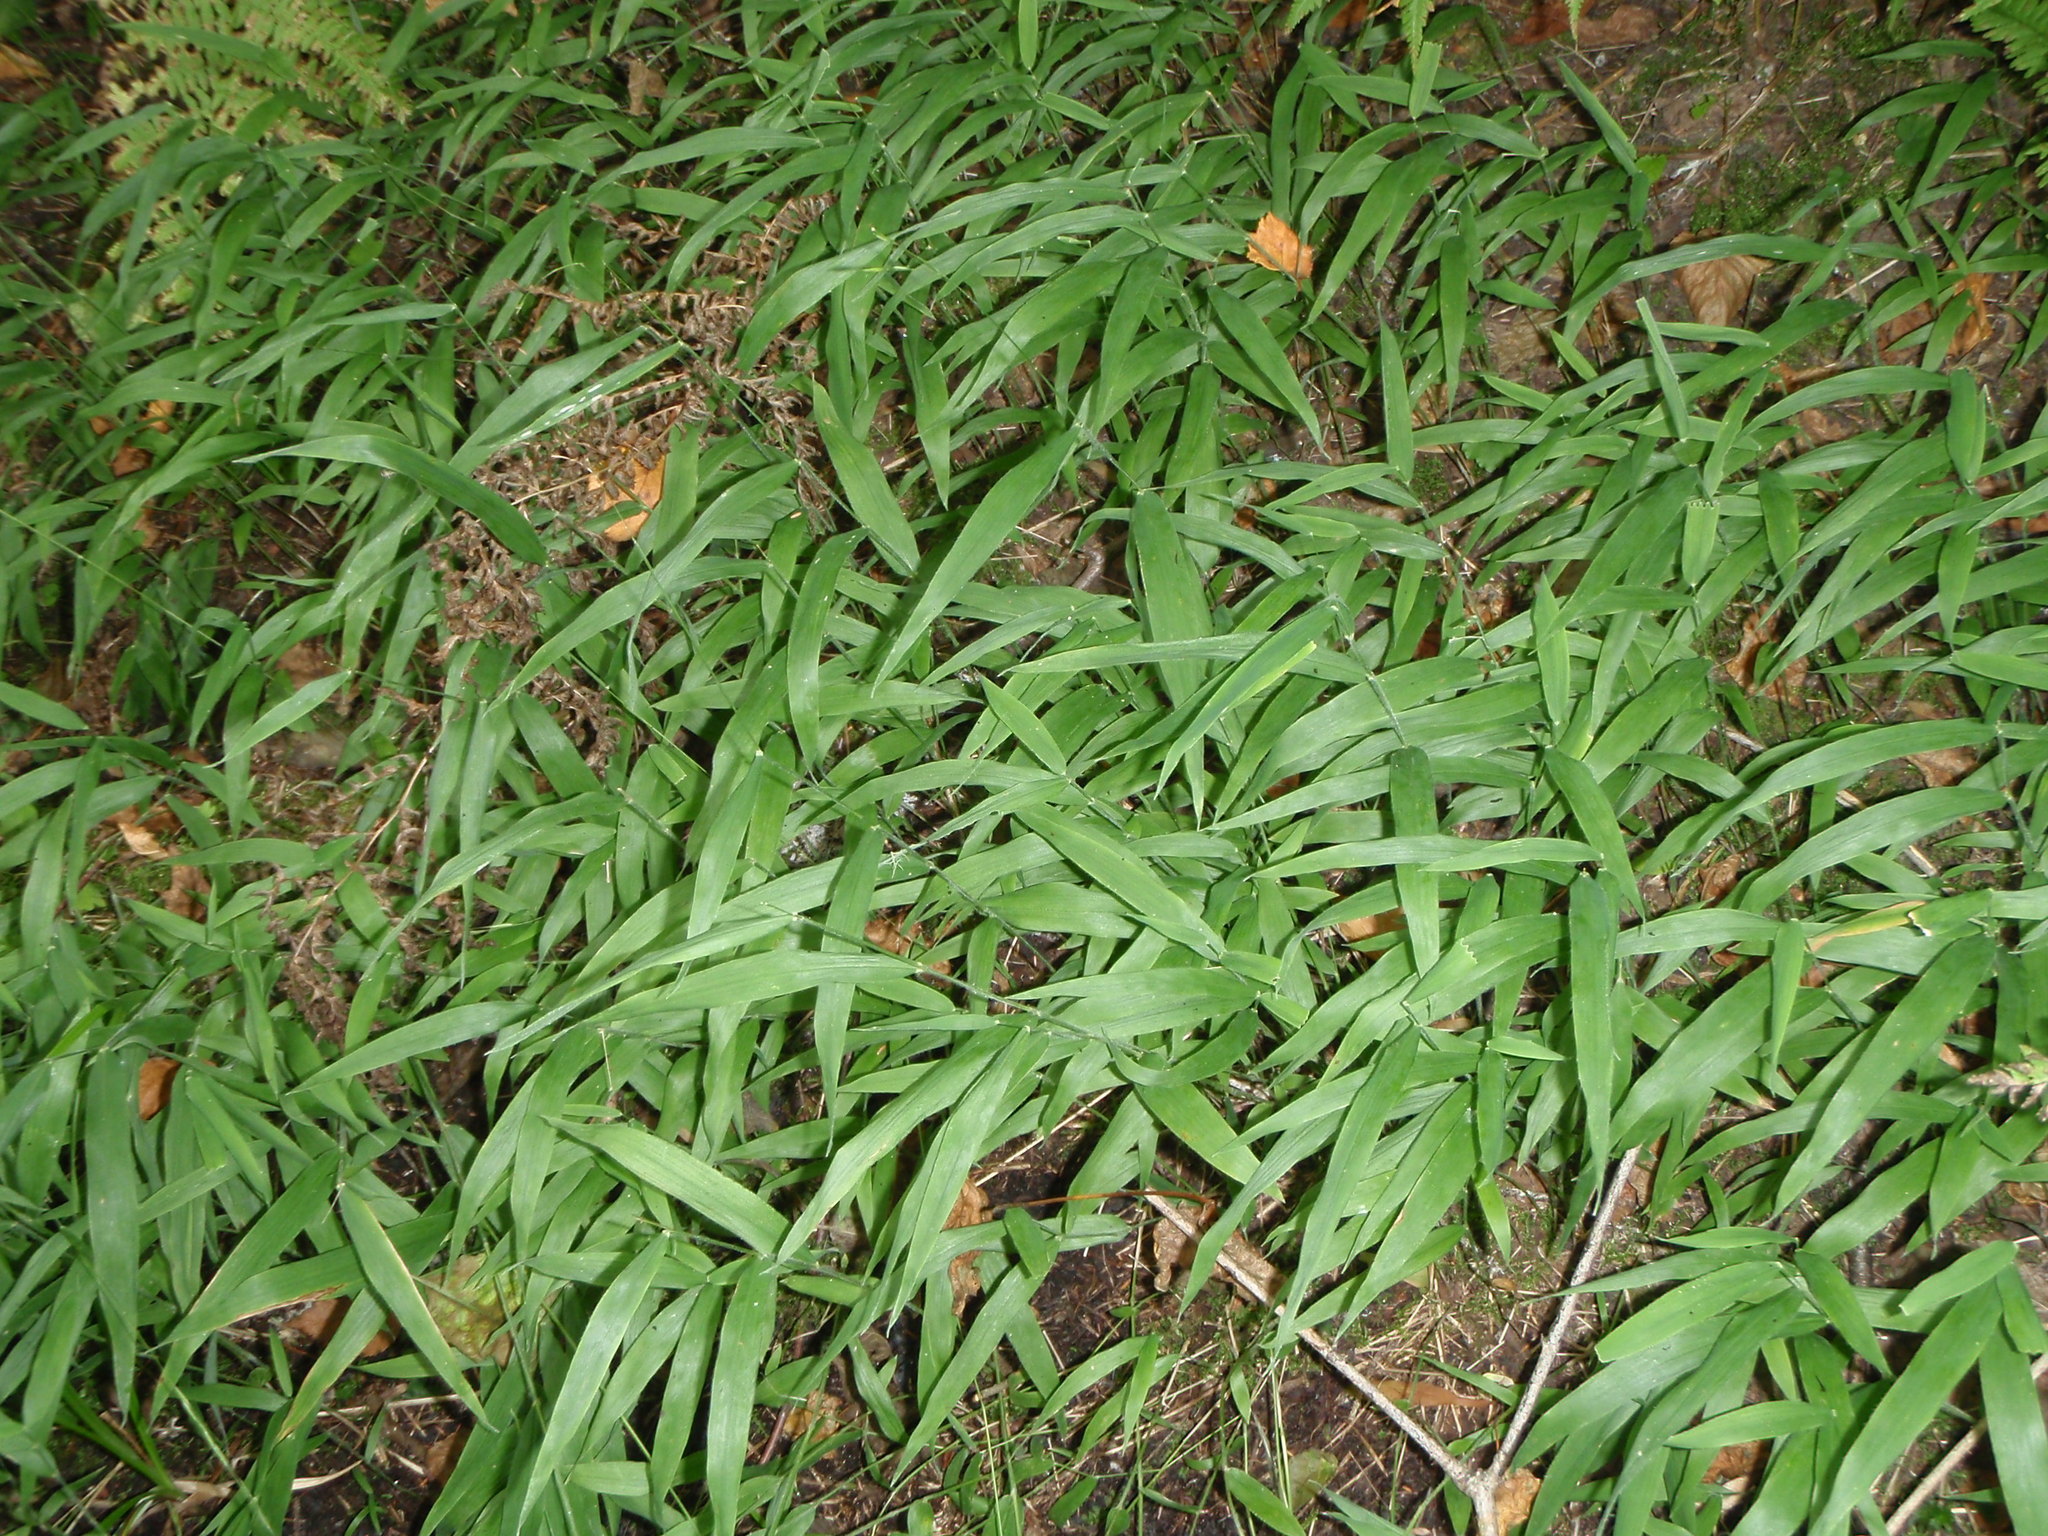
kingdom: Plantae
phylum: Tracheophyta
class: Liliopsida
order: Poales
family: Poaceae
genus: Brachyelytrum
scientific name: Brachyelytrum aristosum
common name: Northern shorthusk
